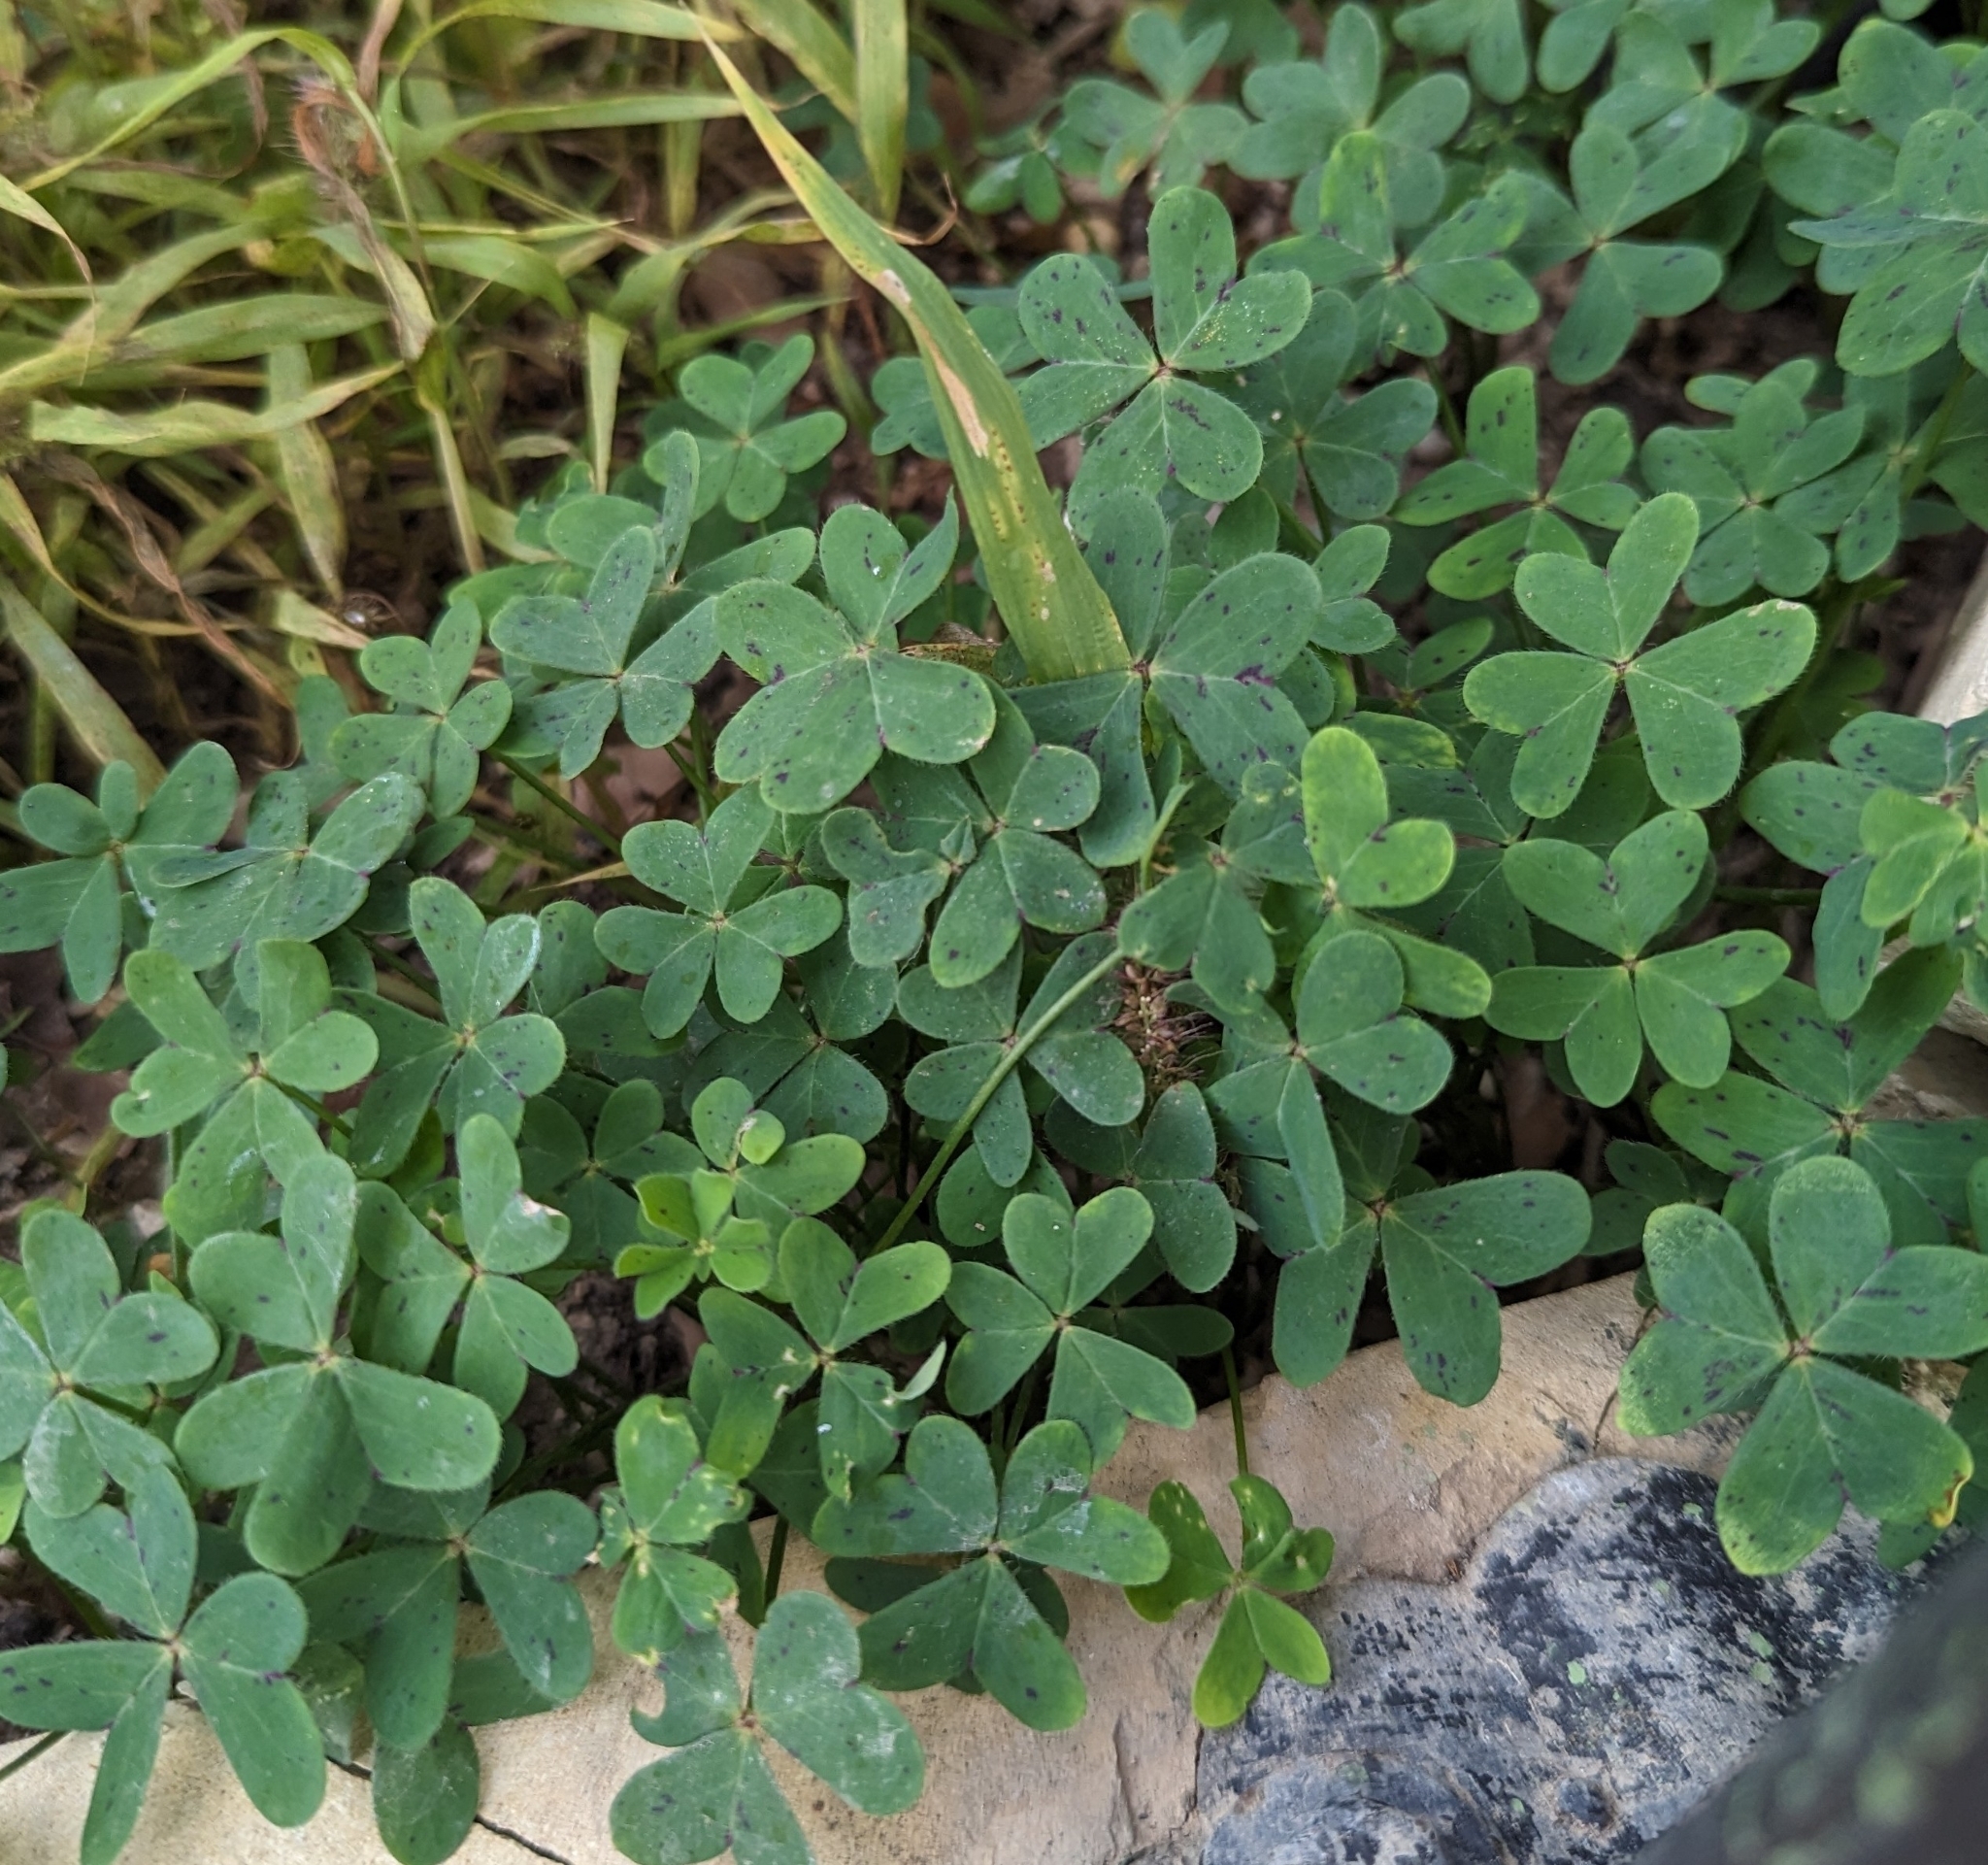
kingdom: Plantae
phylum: Tracheophyta
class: Magnoliopsida
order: Oxalidales
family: Oxalidaceae
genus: Oxalis
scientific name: Oxalis pes-caprae
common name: Bermuda-buttercup
